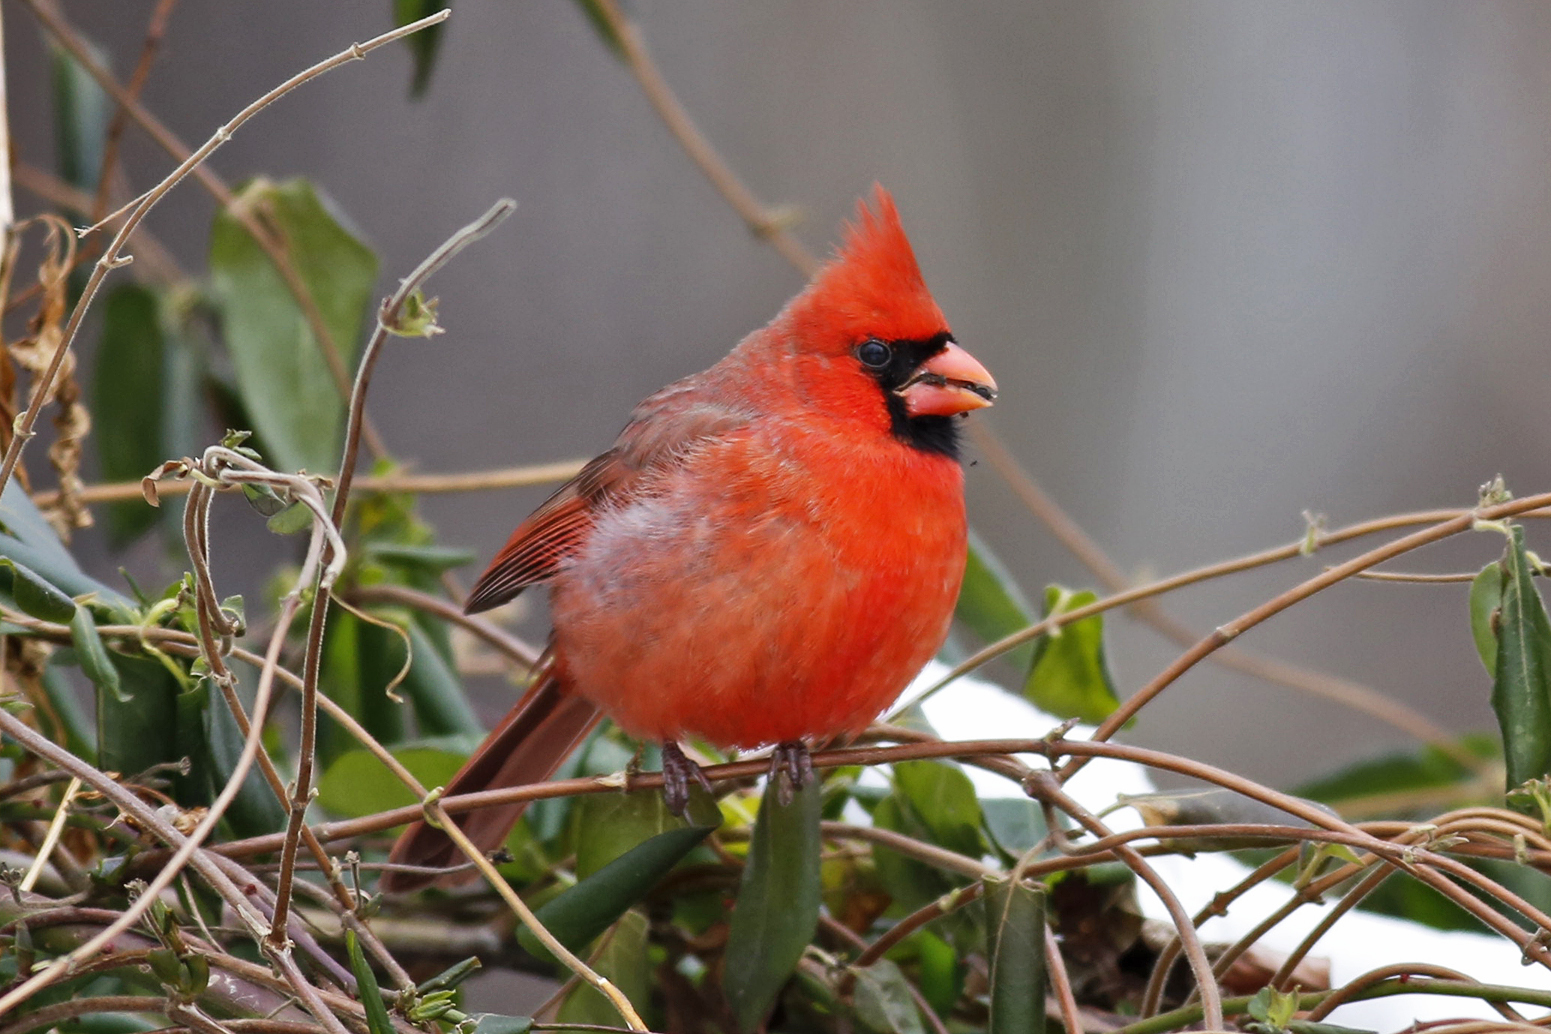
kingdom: Animalia
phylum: Chordata
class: Aves
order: Passeriformes
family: Cardinalidae
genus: Cardinalis
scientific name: Cardinalis cardinalis
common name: Northern cardinal
